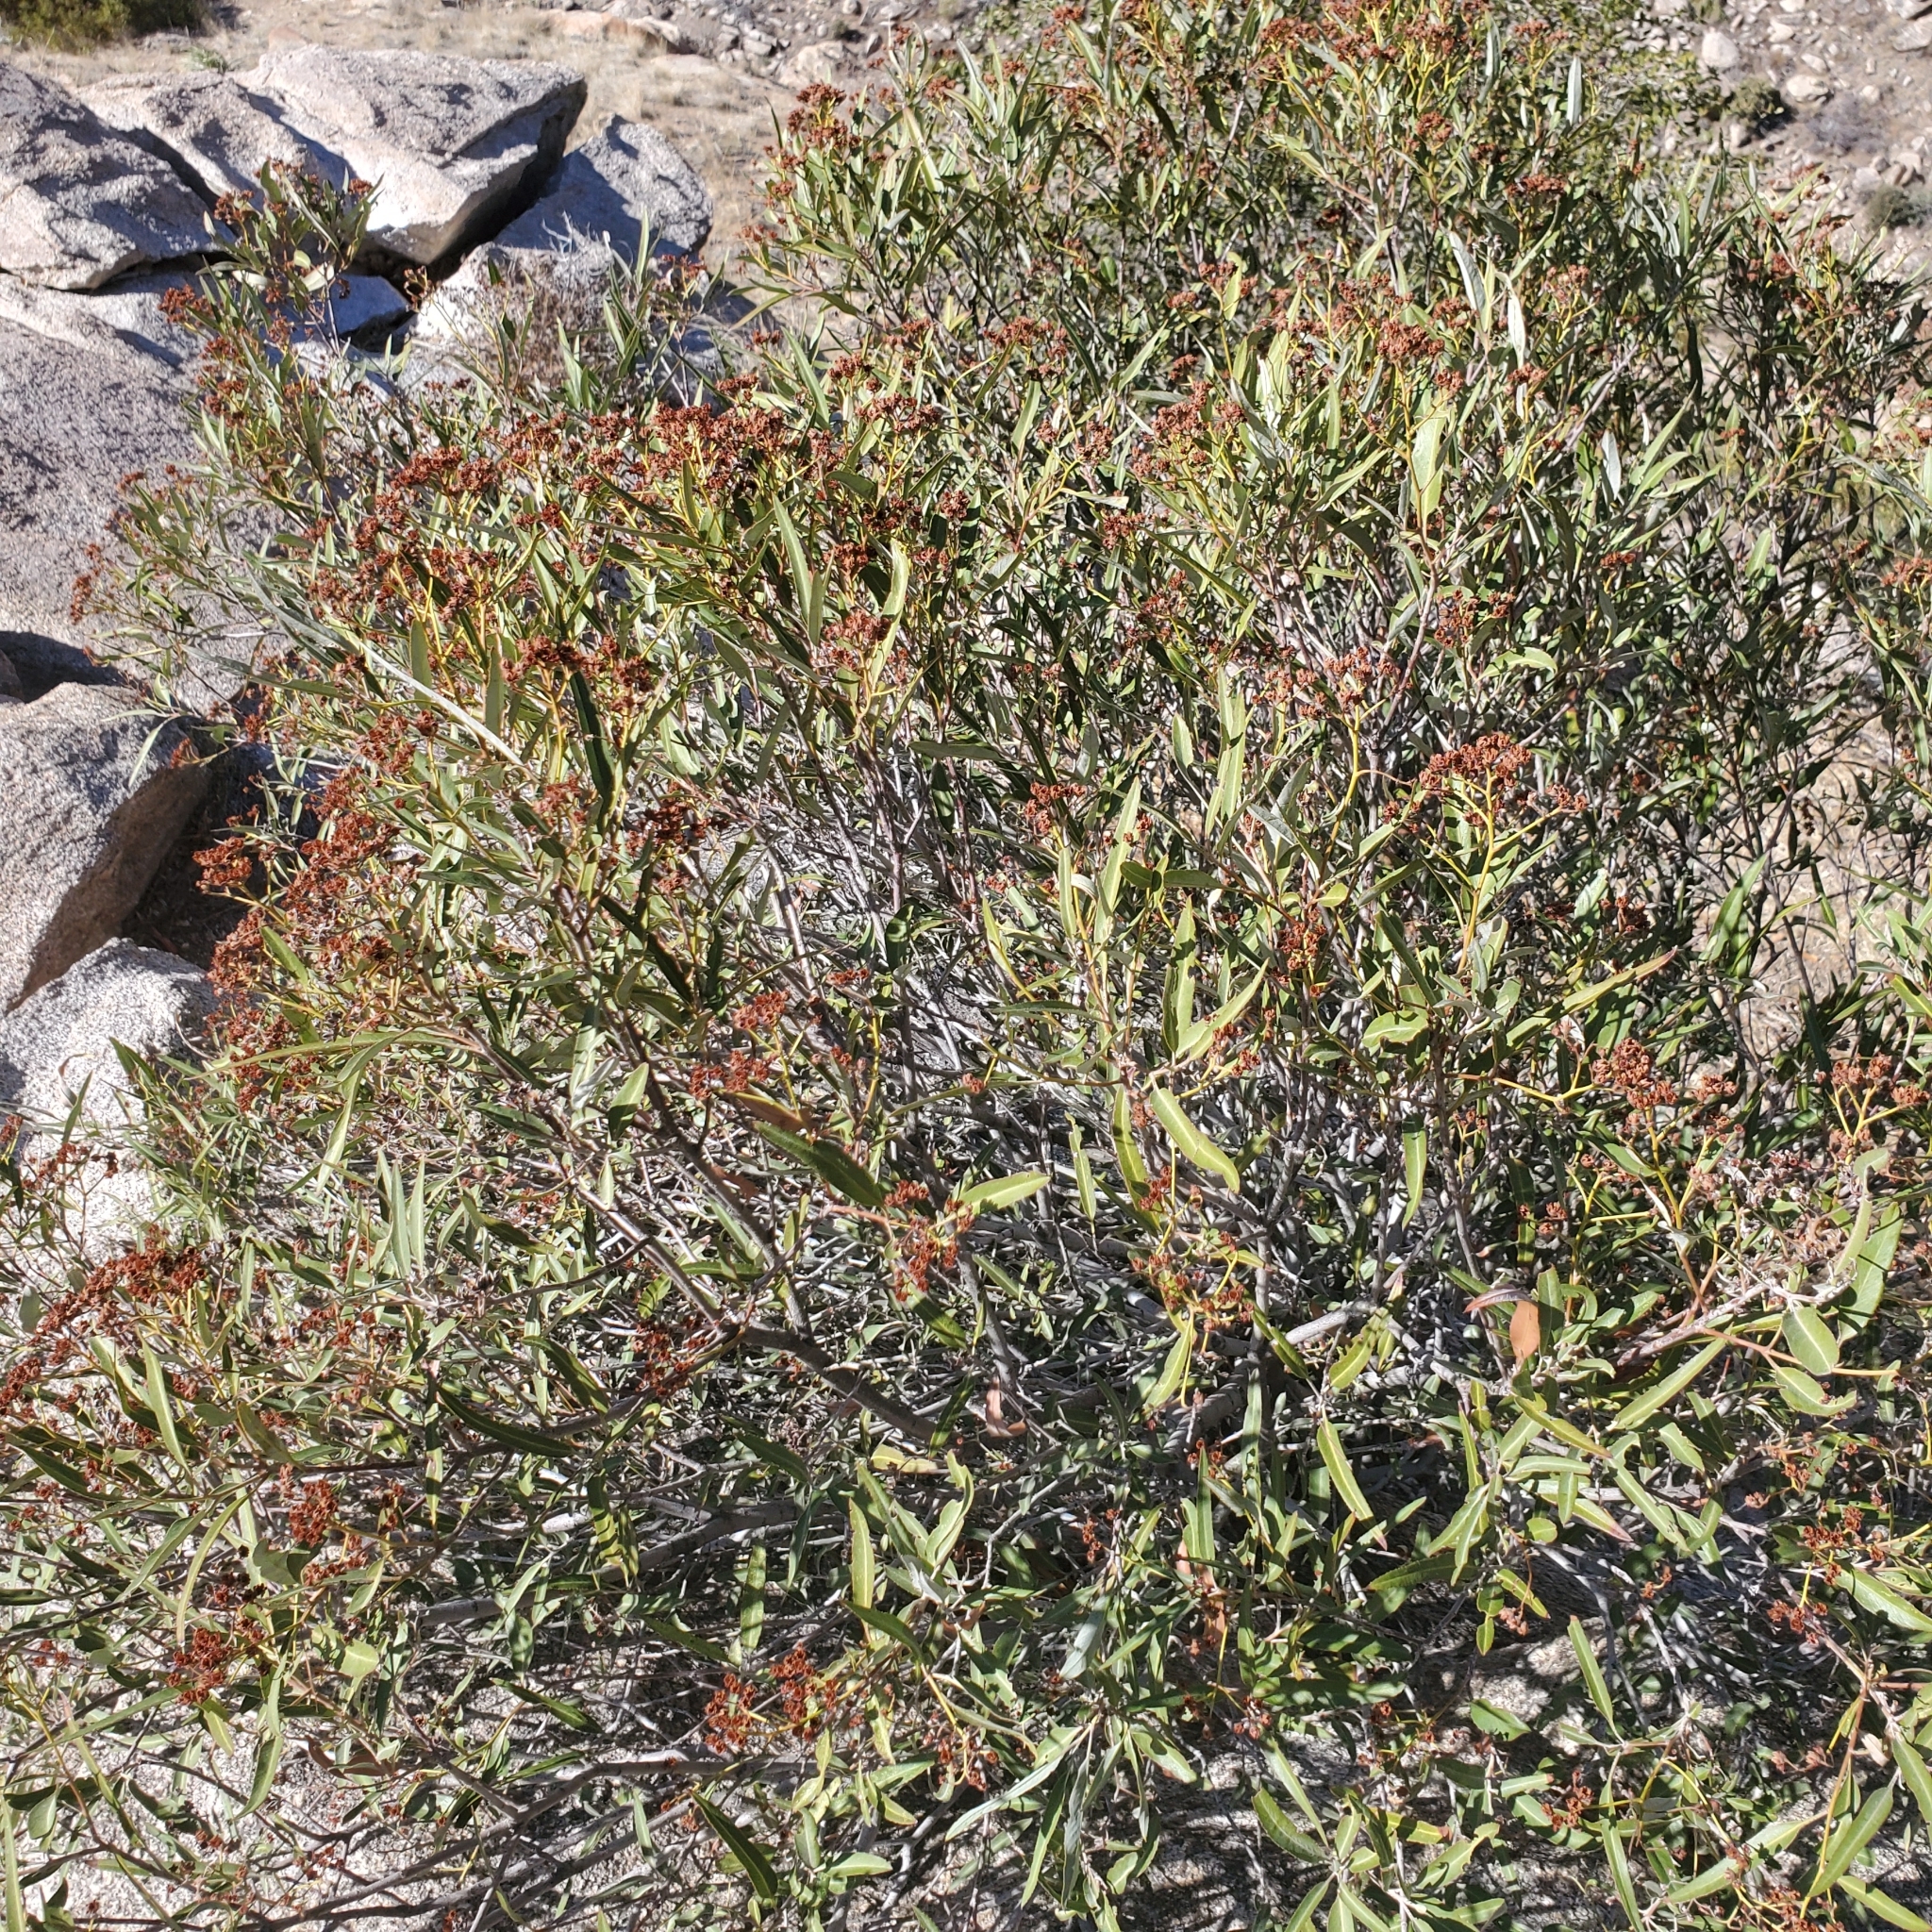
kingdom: Plantae
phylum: Tracheophyta
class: Magnoliopsida
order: Rosales
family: Rosaceae
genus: Vauquelinia
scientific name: Vauquelinia californica
